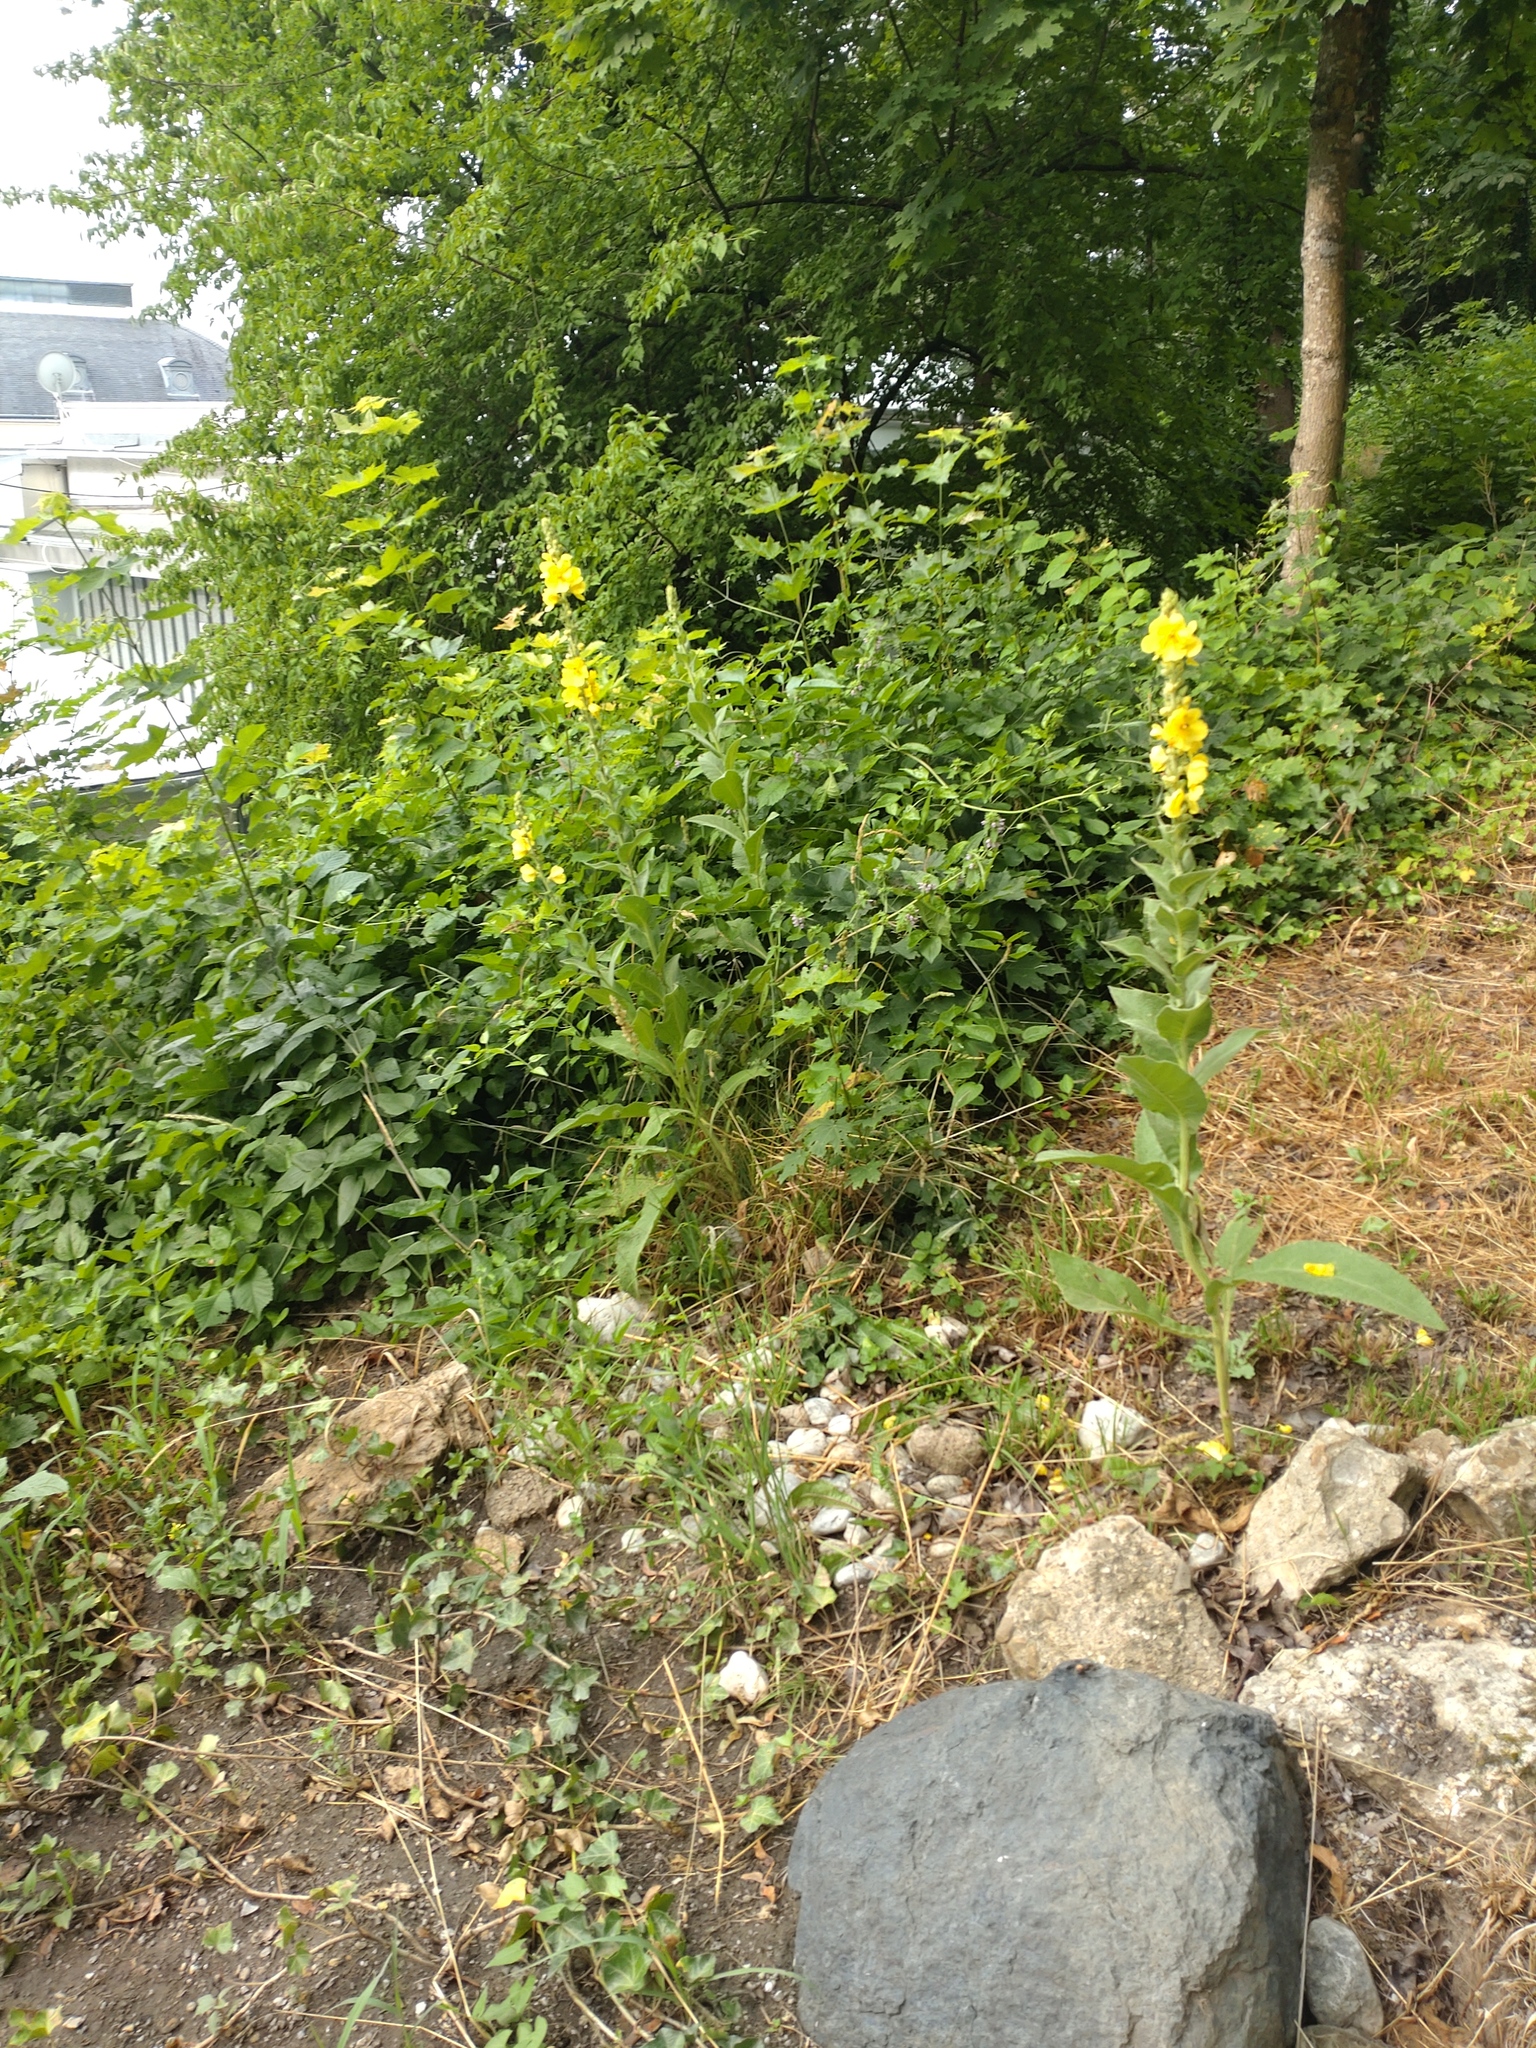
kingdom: Plantae
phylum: Tracheophyta
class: Magnoliopsida
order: Lamiales
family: Scrophulariaceae
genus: Verbascum
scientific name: Verbascum phlomoides
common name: Orange mullein
